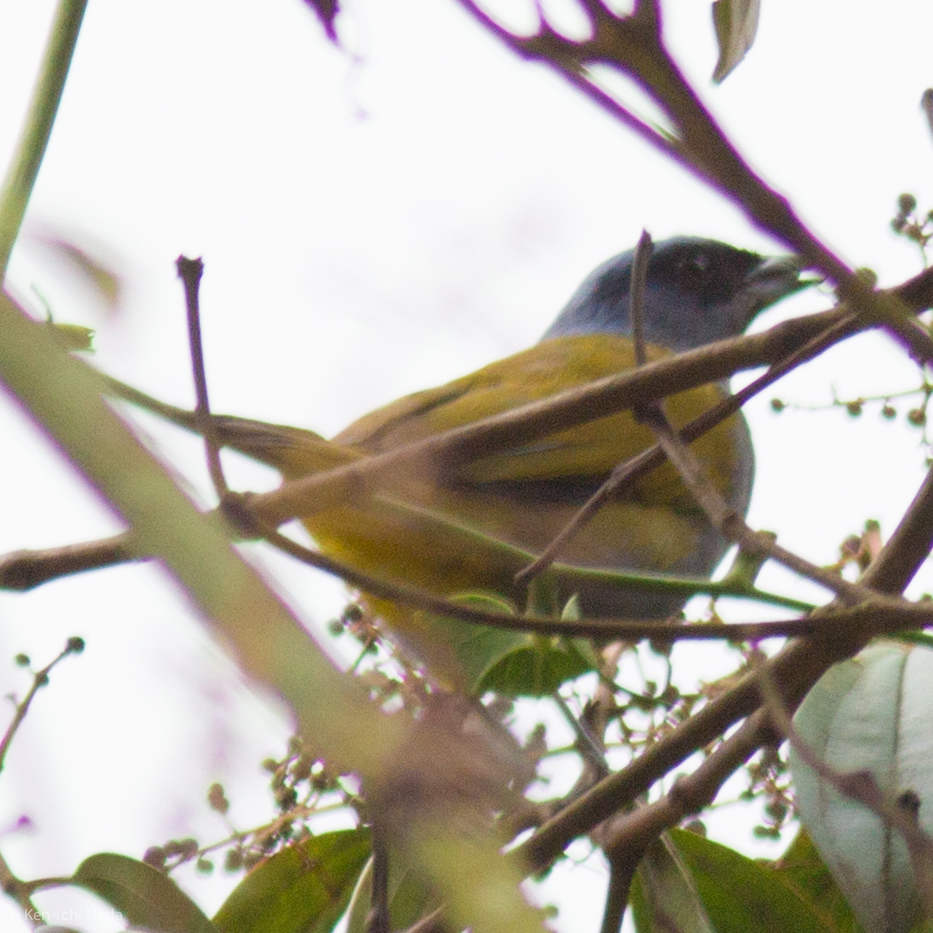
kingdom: Animalia
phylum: Chordata
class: Aves
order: Passeriformes
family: Thraupidae
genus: Sporathraupis
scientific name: Sporathraupis cyanocephala
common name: Blue-capped tanager
